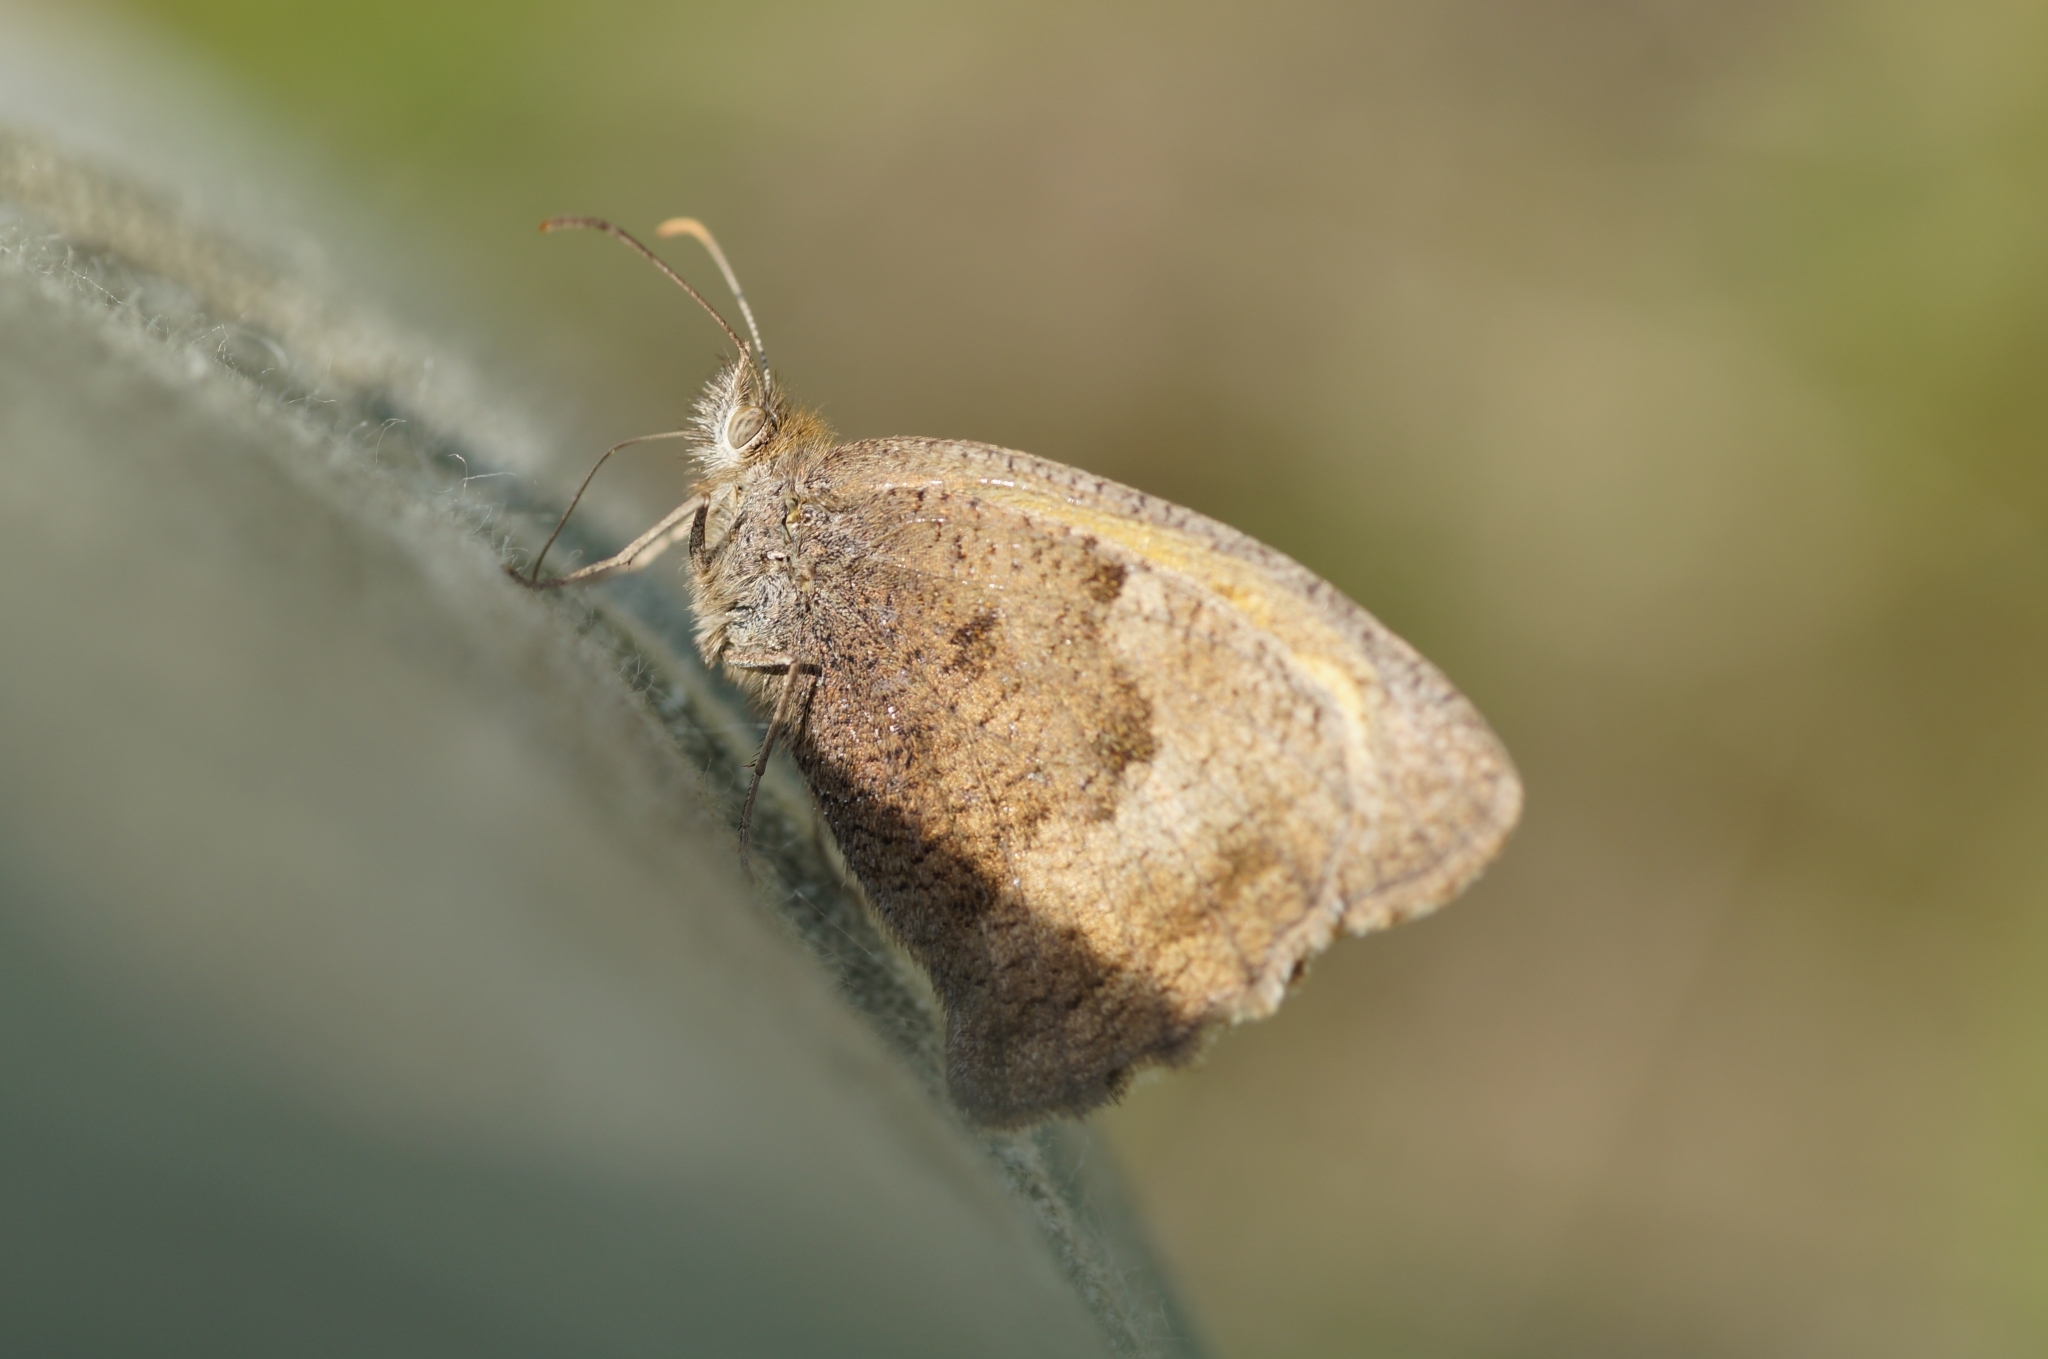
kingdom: Animalia
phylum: Arthropoda
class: Insecta
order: Lepidoptera
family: Nymphalidae
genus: Hyponephele
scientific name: Hyponephele lycaon
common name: Dusky meadow brown
